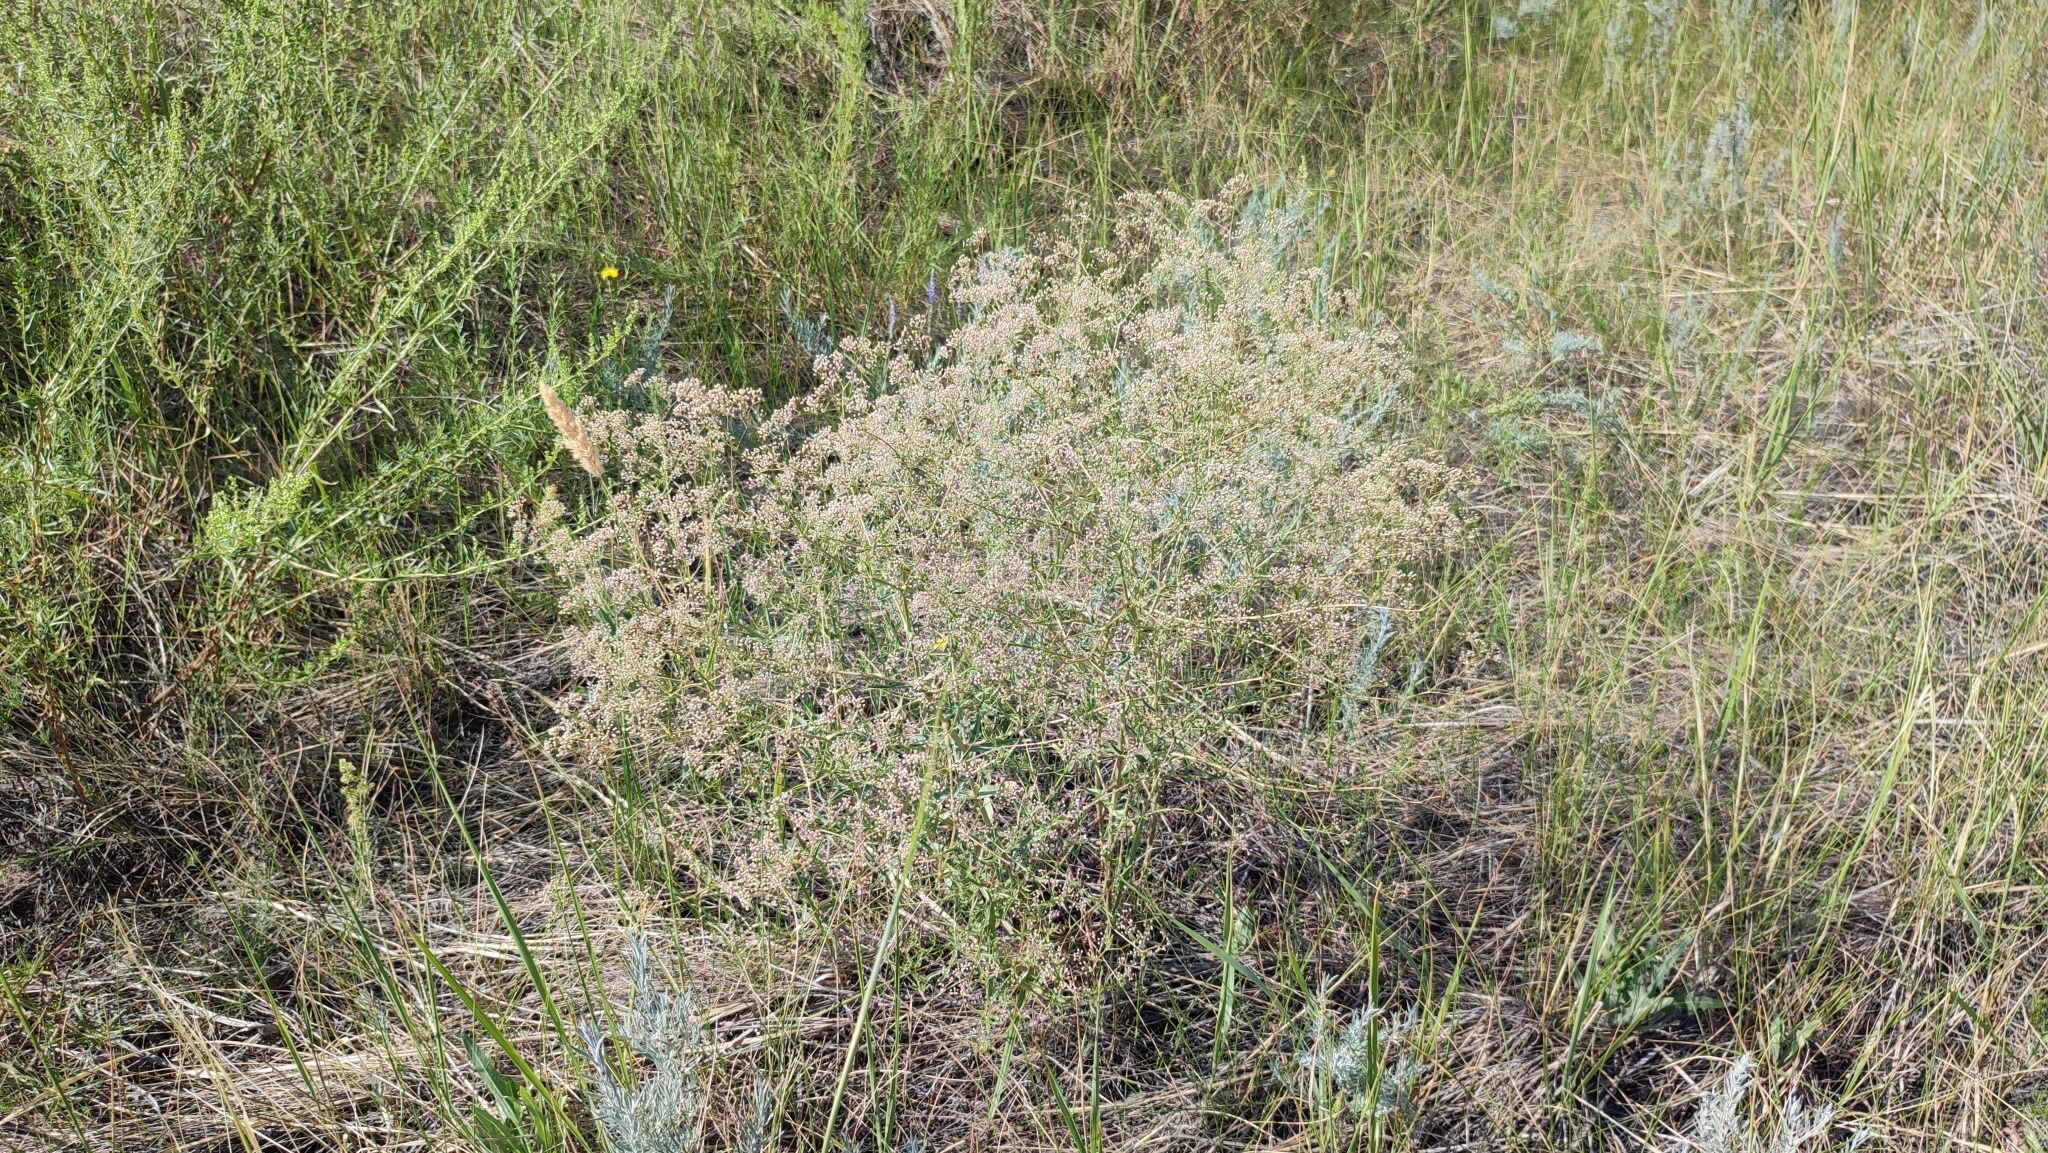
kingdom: Plantae
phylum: Tracheophyta
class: Magnoliopsida
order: Caryophyllales
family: Caryophyllaceae
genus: Gypsophila
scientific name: Gypsophila paniculata
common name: Baby's-breath
